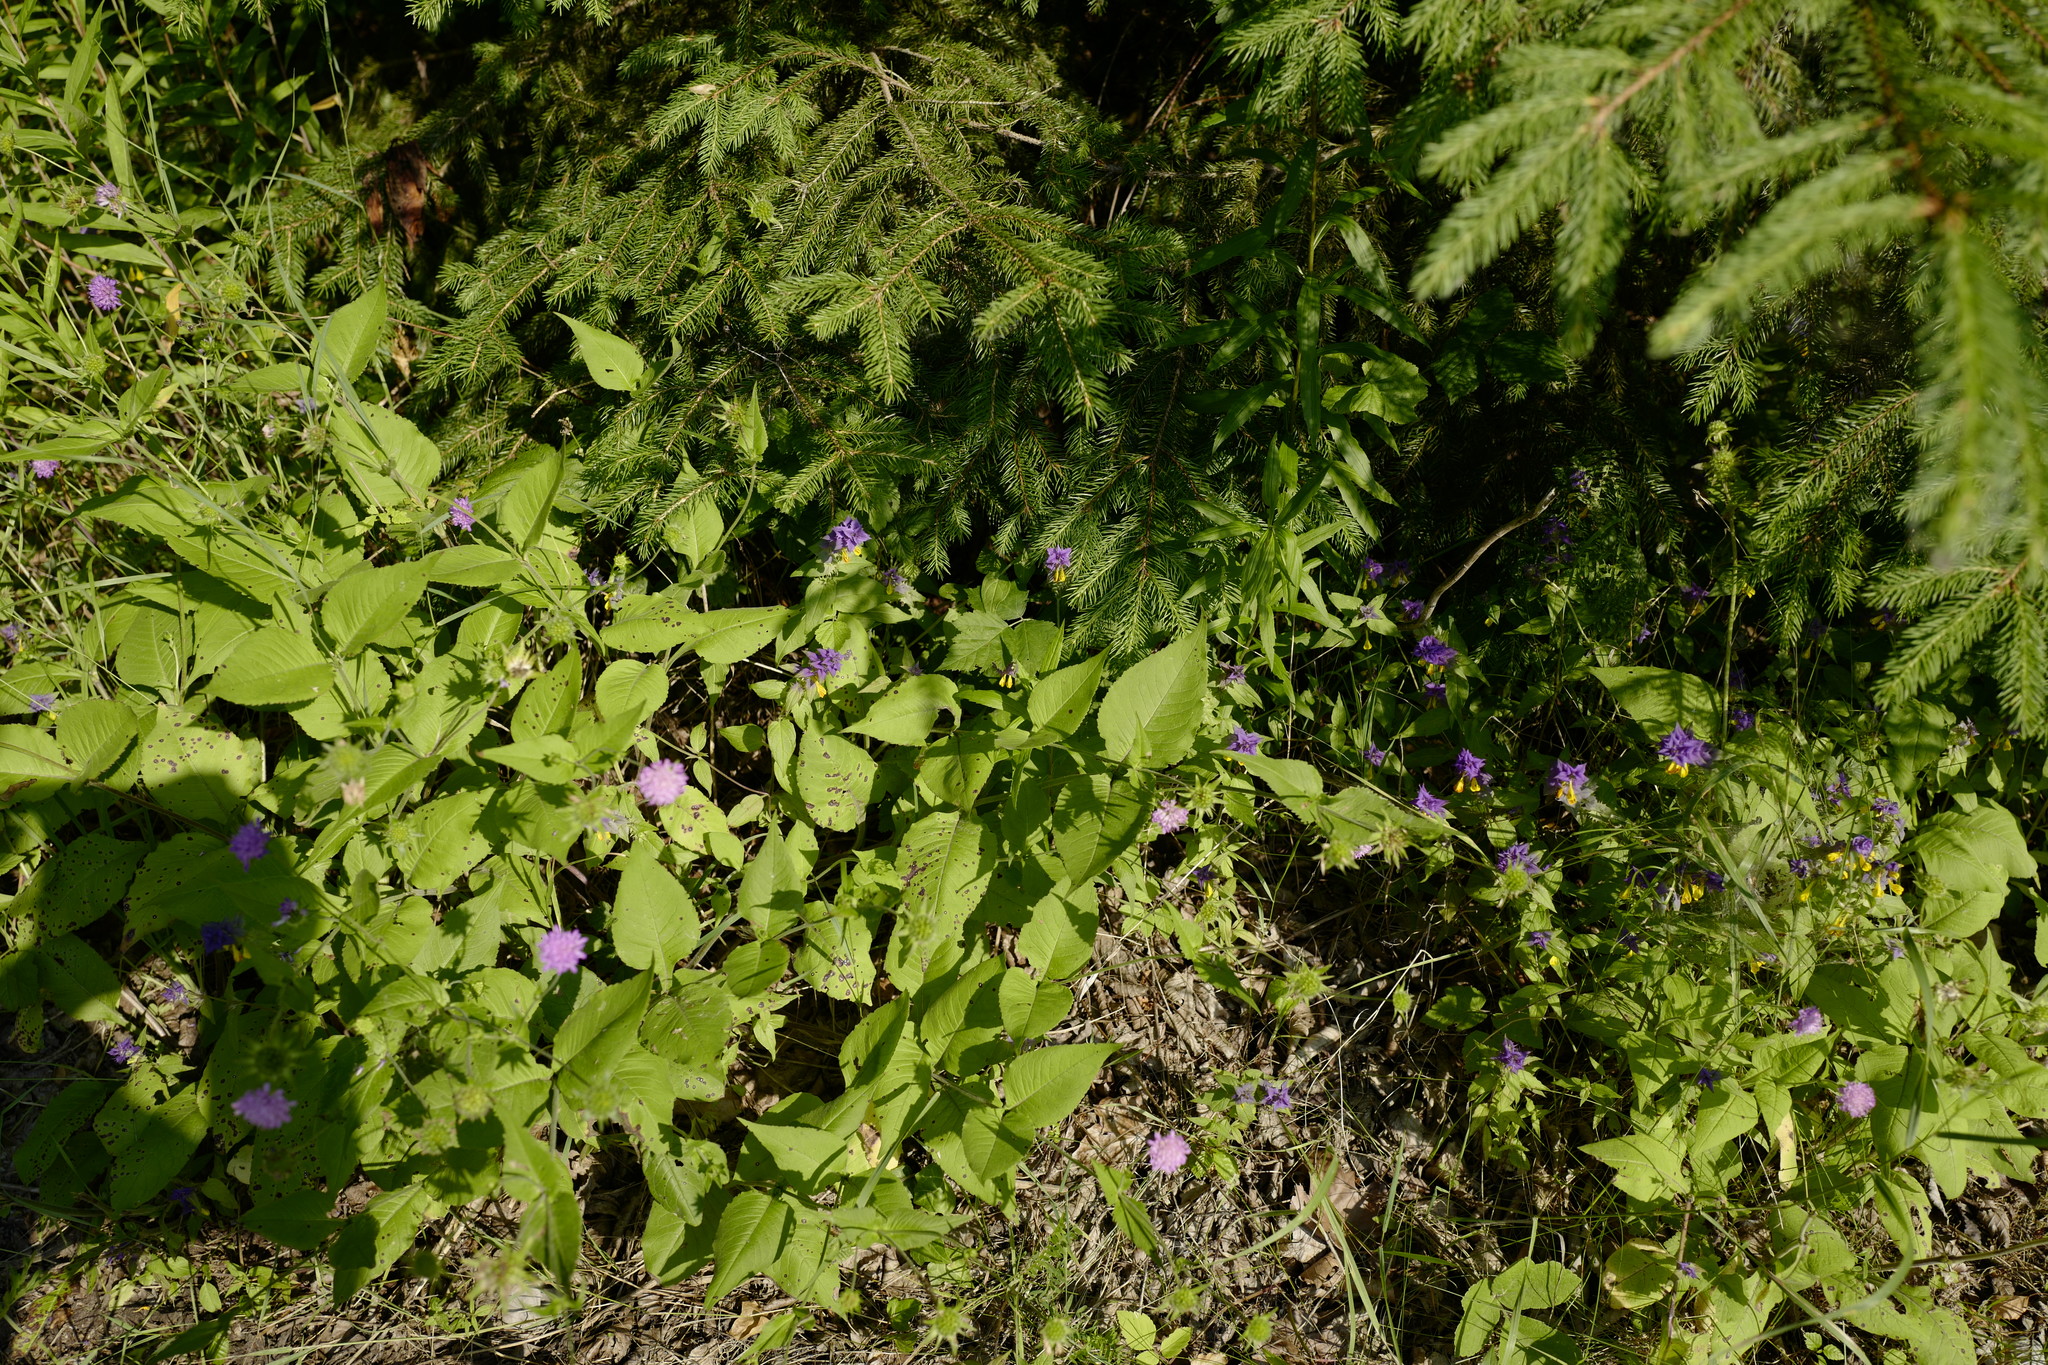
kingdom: Plantae
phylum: Tracheophyta
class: Magnoliopsida
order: Lamiales
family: Orobanchaceae
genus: Melampyrum
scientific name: Melampyrum nemorosum
